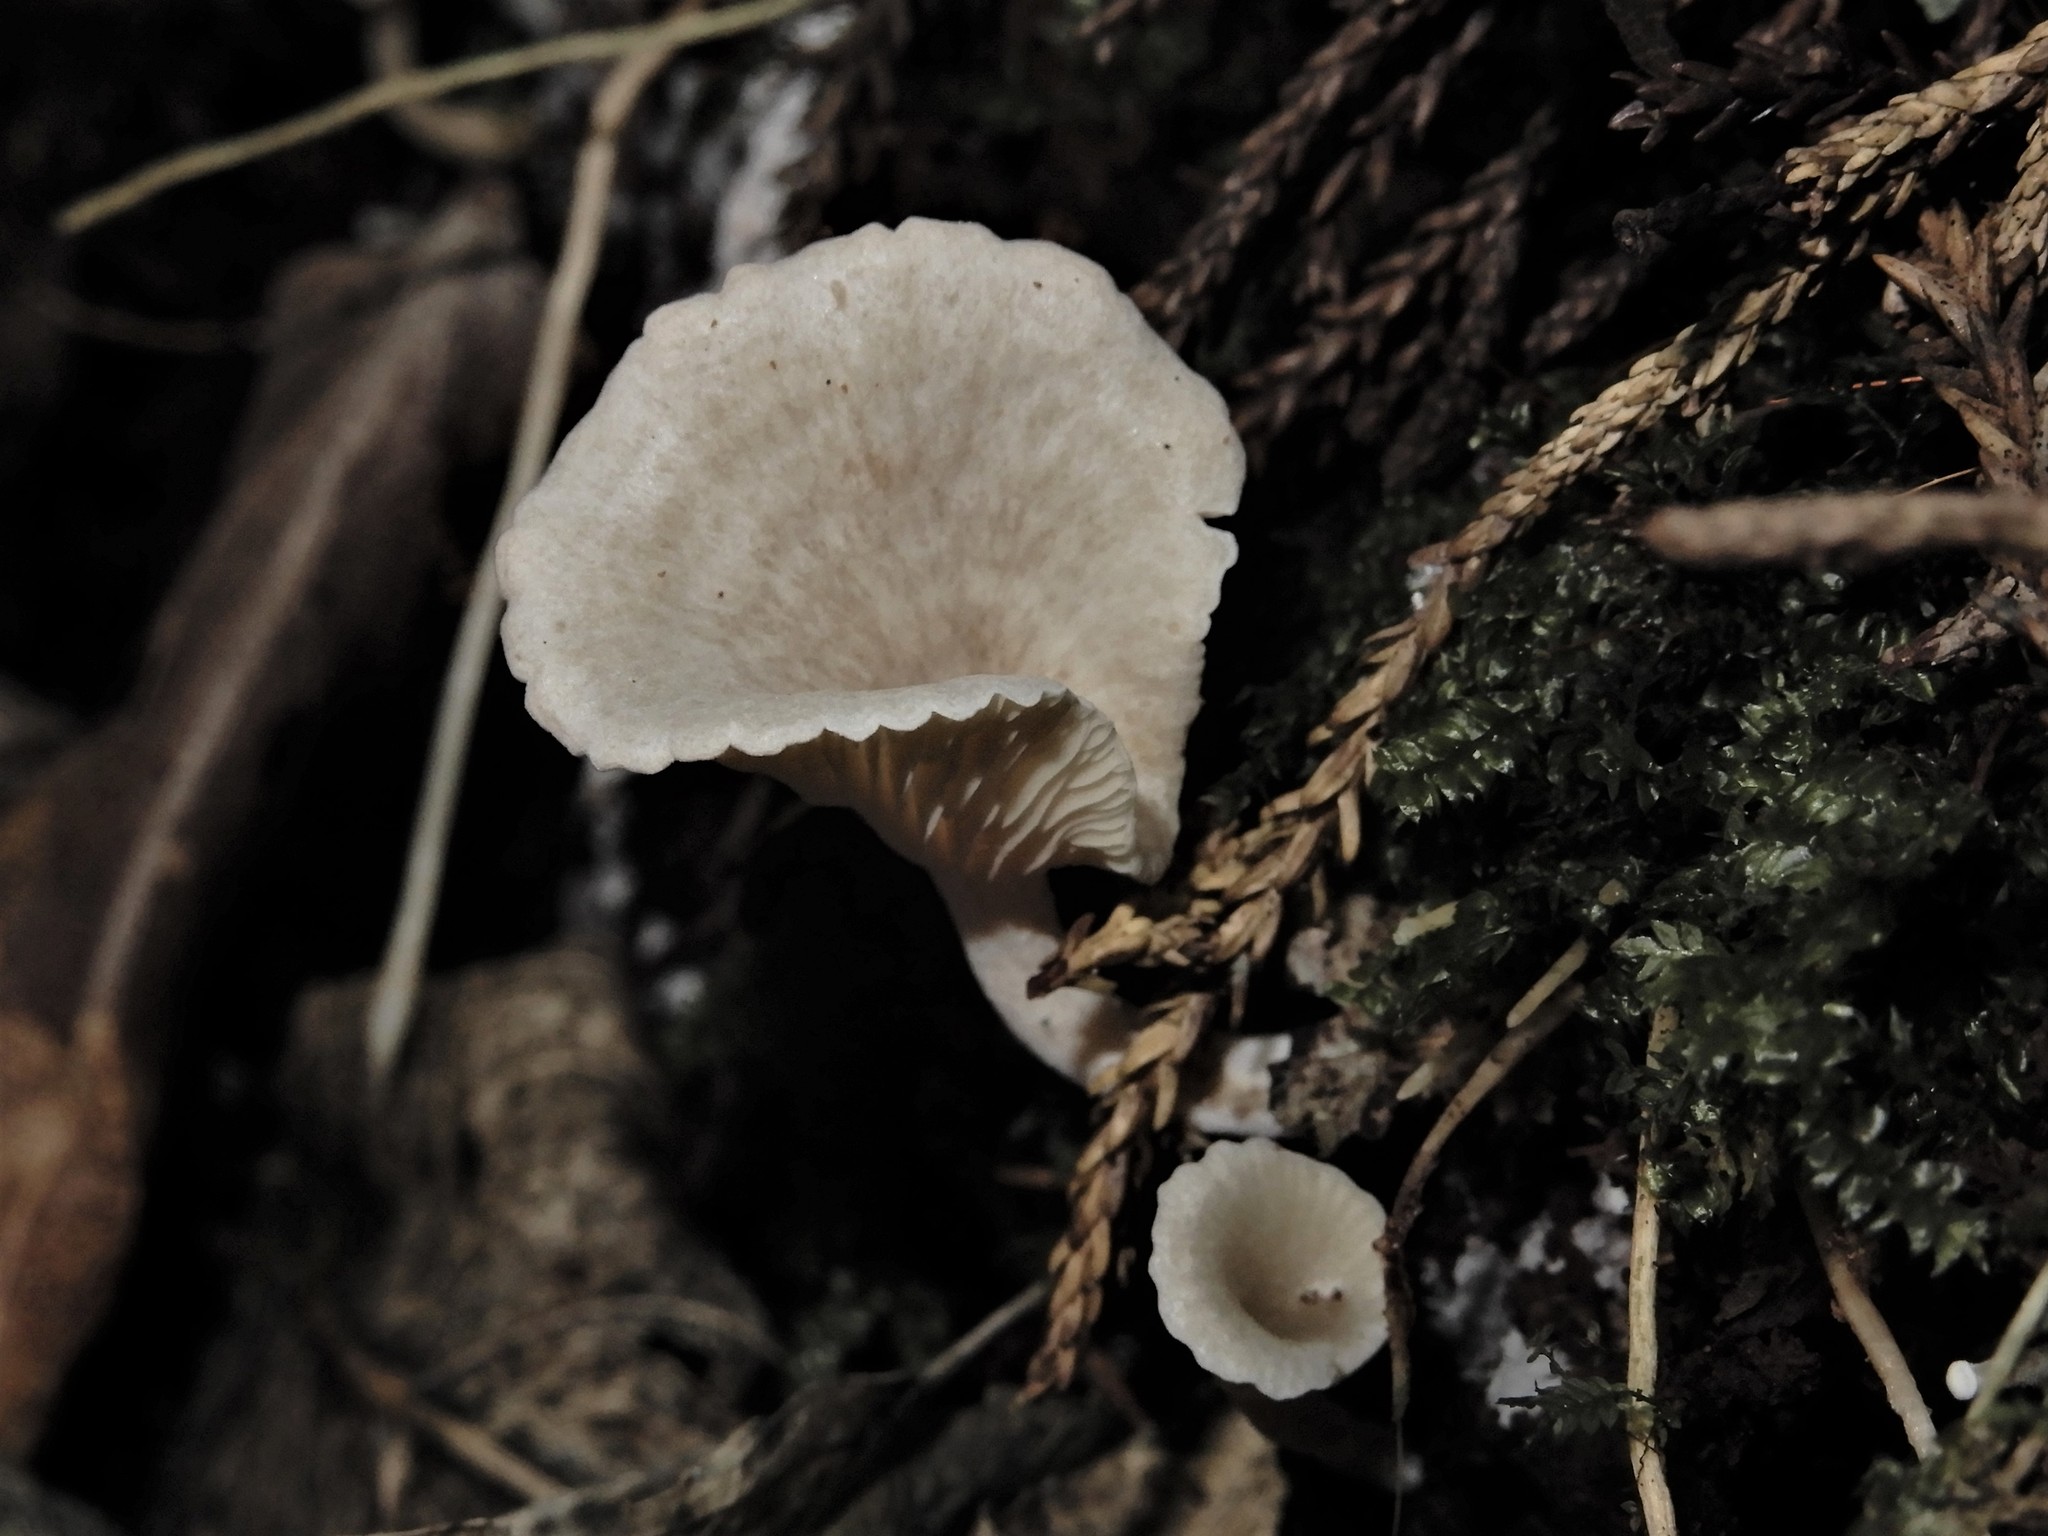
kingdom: Fungi
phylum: Basidiomycota
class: Agaricomycetes
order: Agaricales
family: Tricholomataceae
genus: Rhizocybe
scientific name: Rhizocybe albida
